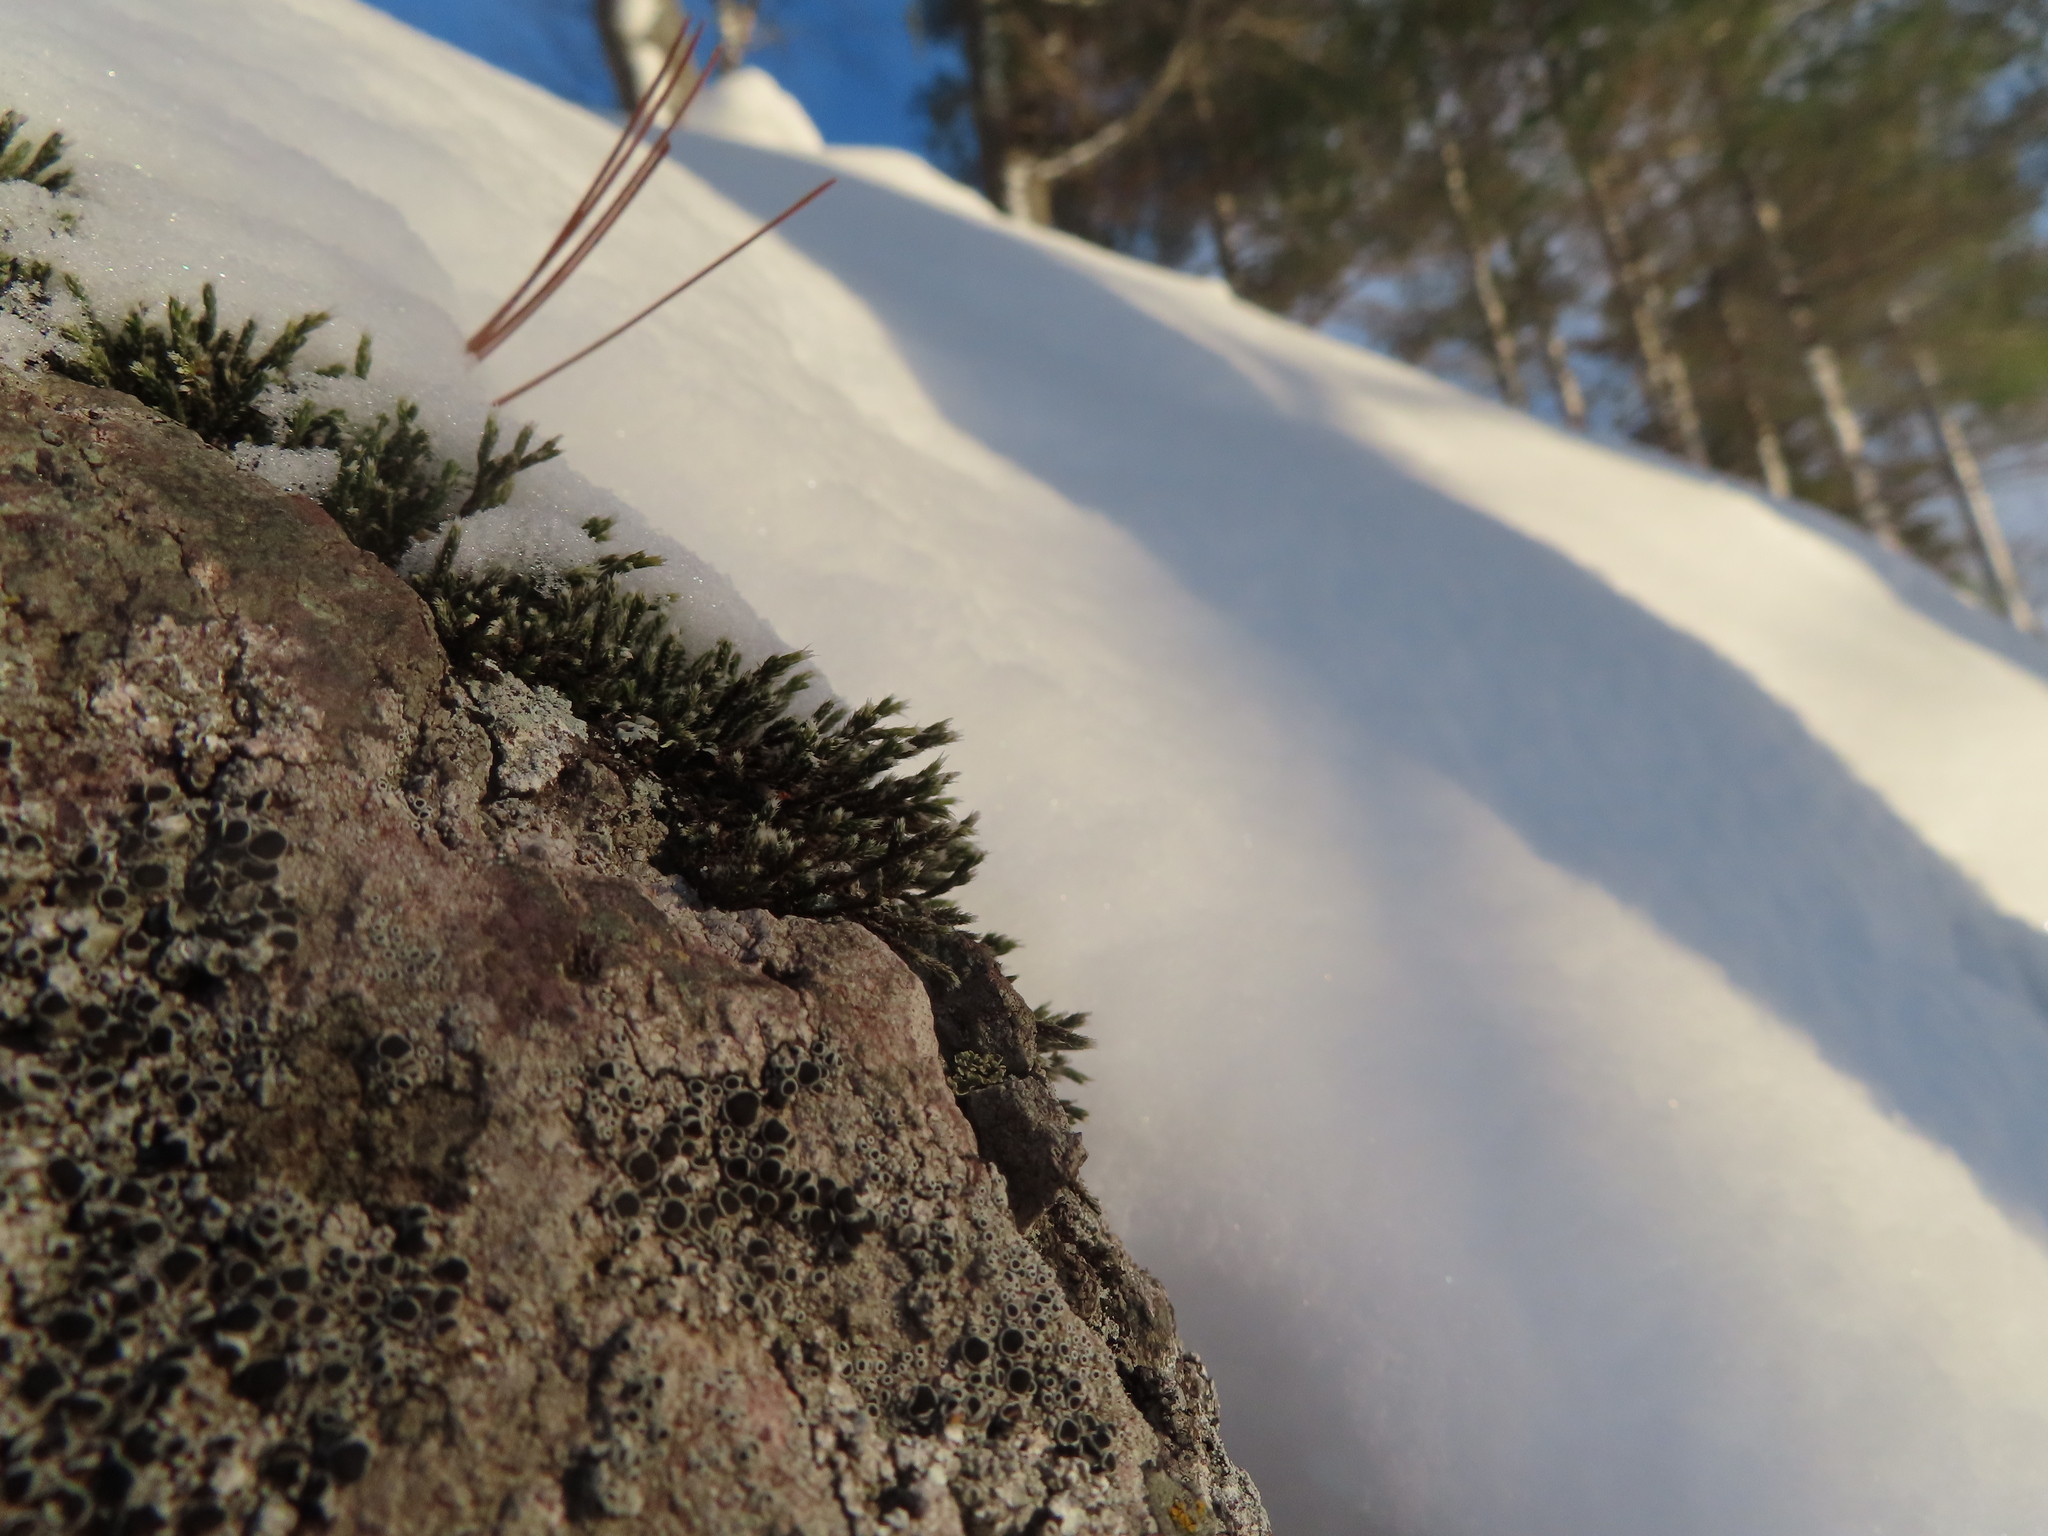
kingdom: Plantae
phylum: Bryophyta
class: Bryopsida
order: Hedwigiales
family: Hedwigiaceae
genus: Hedwigia
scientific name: Hedwigia ciliata
